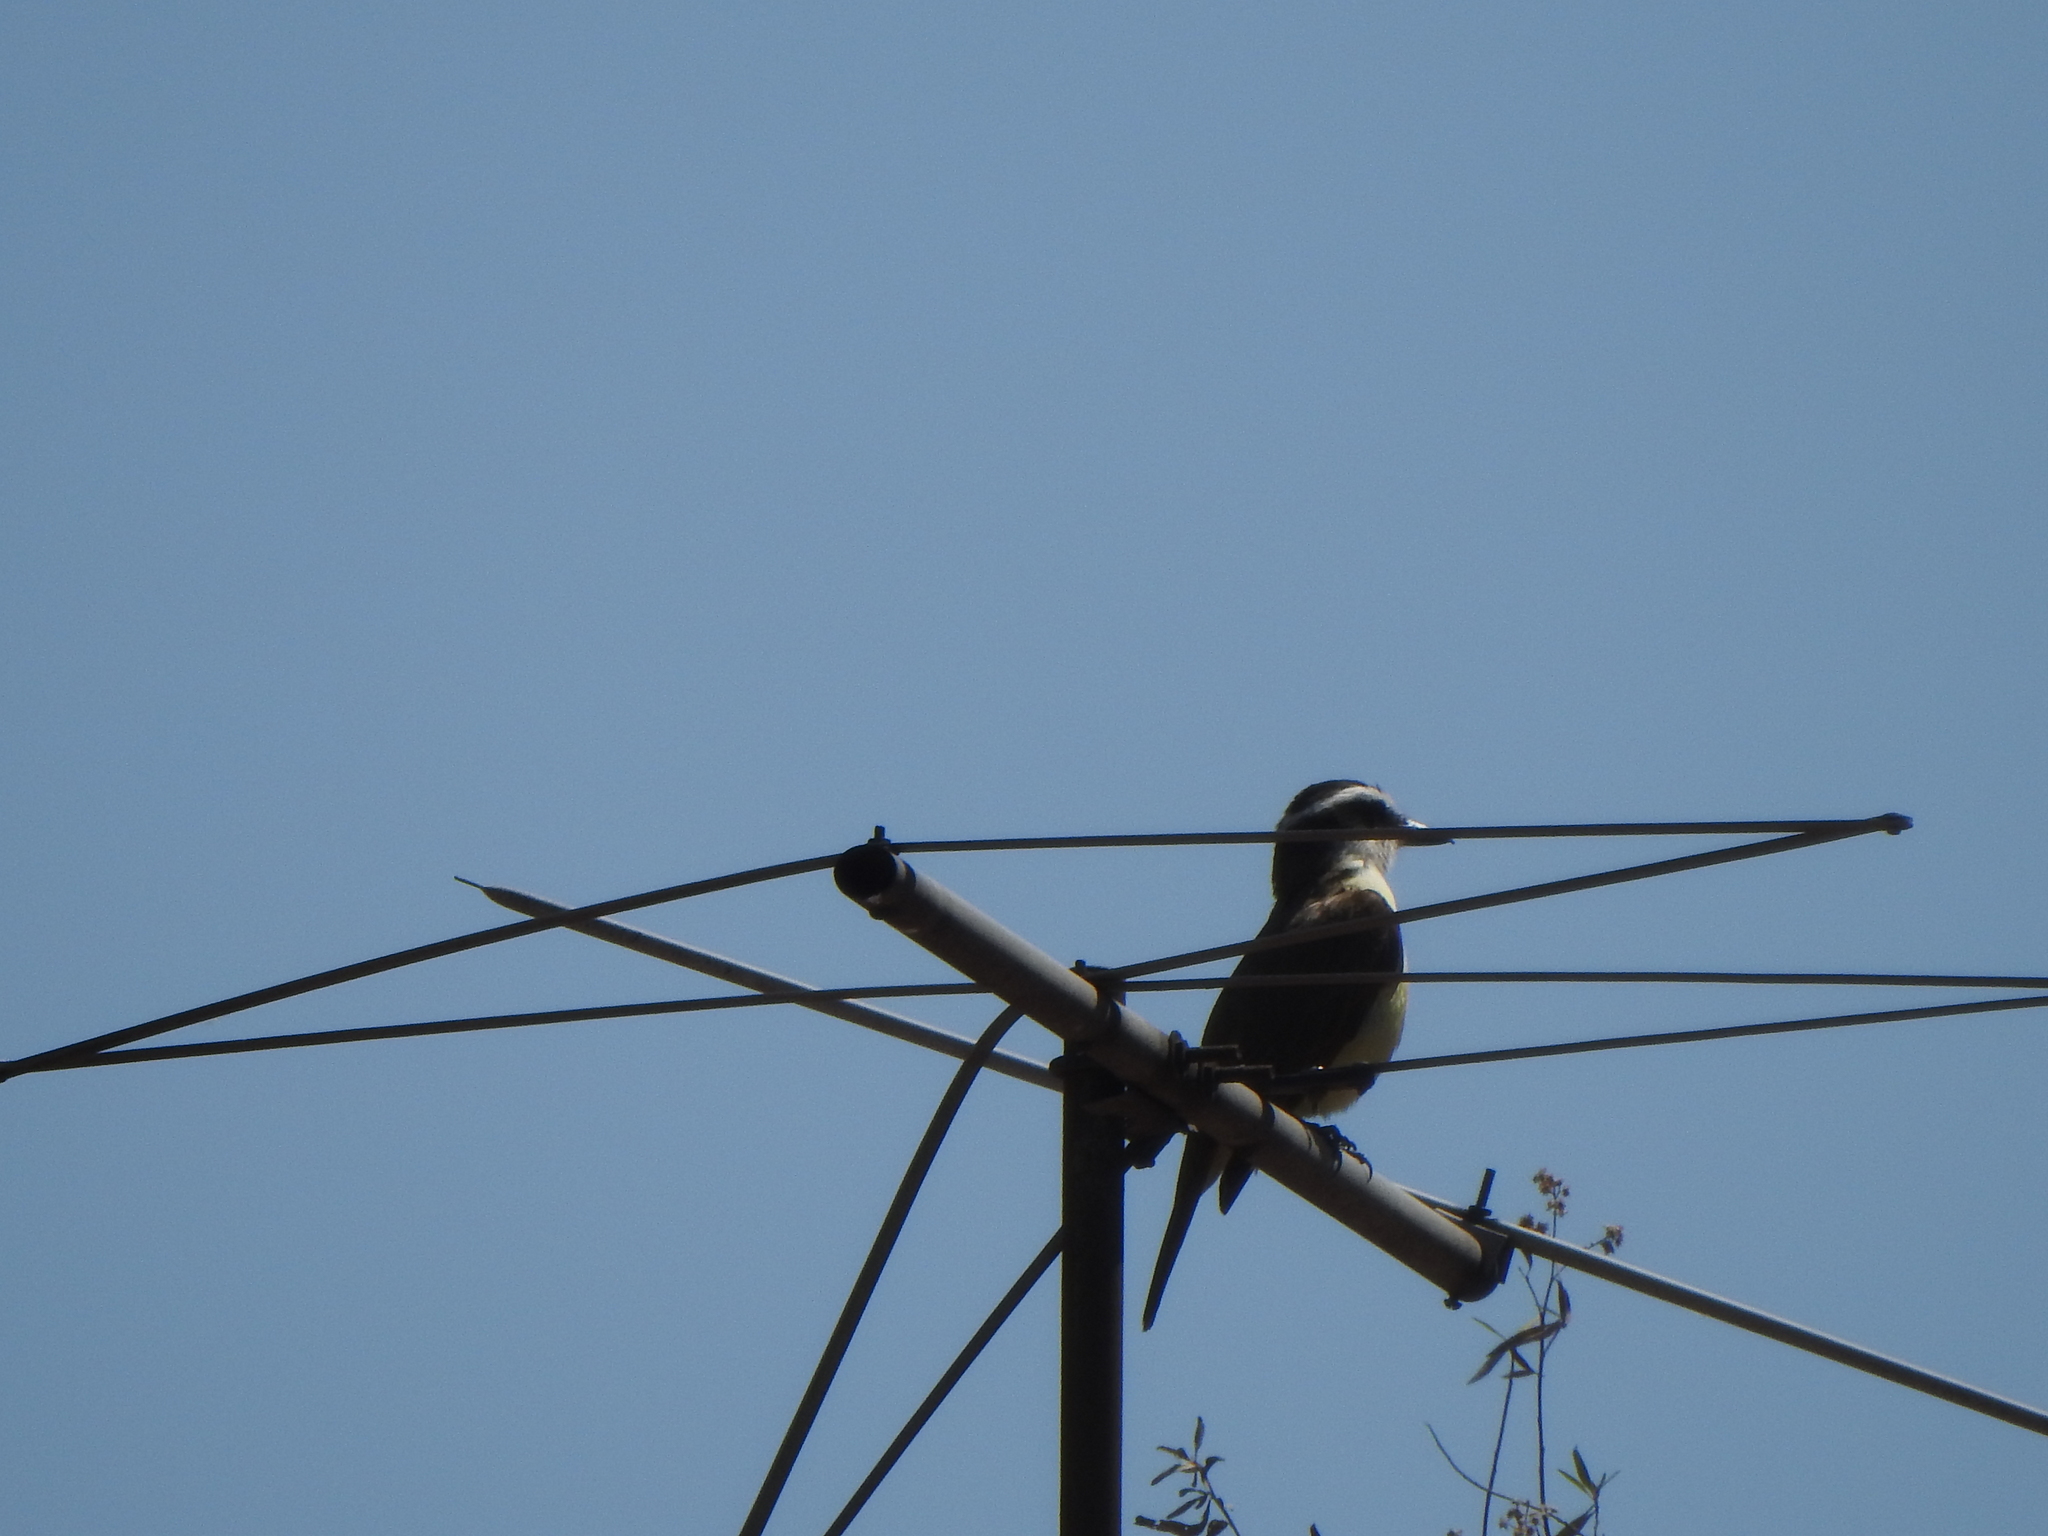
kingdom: Animalia
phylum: Chordata
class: Aves
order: Passeriformes
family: Tyrannidae
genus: Pitangus
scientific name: Pitangus sulphuratus
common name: Great kiskadee
